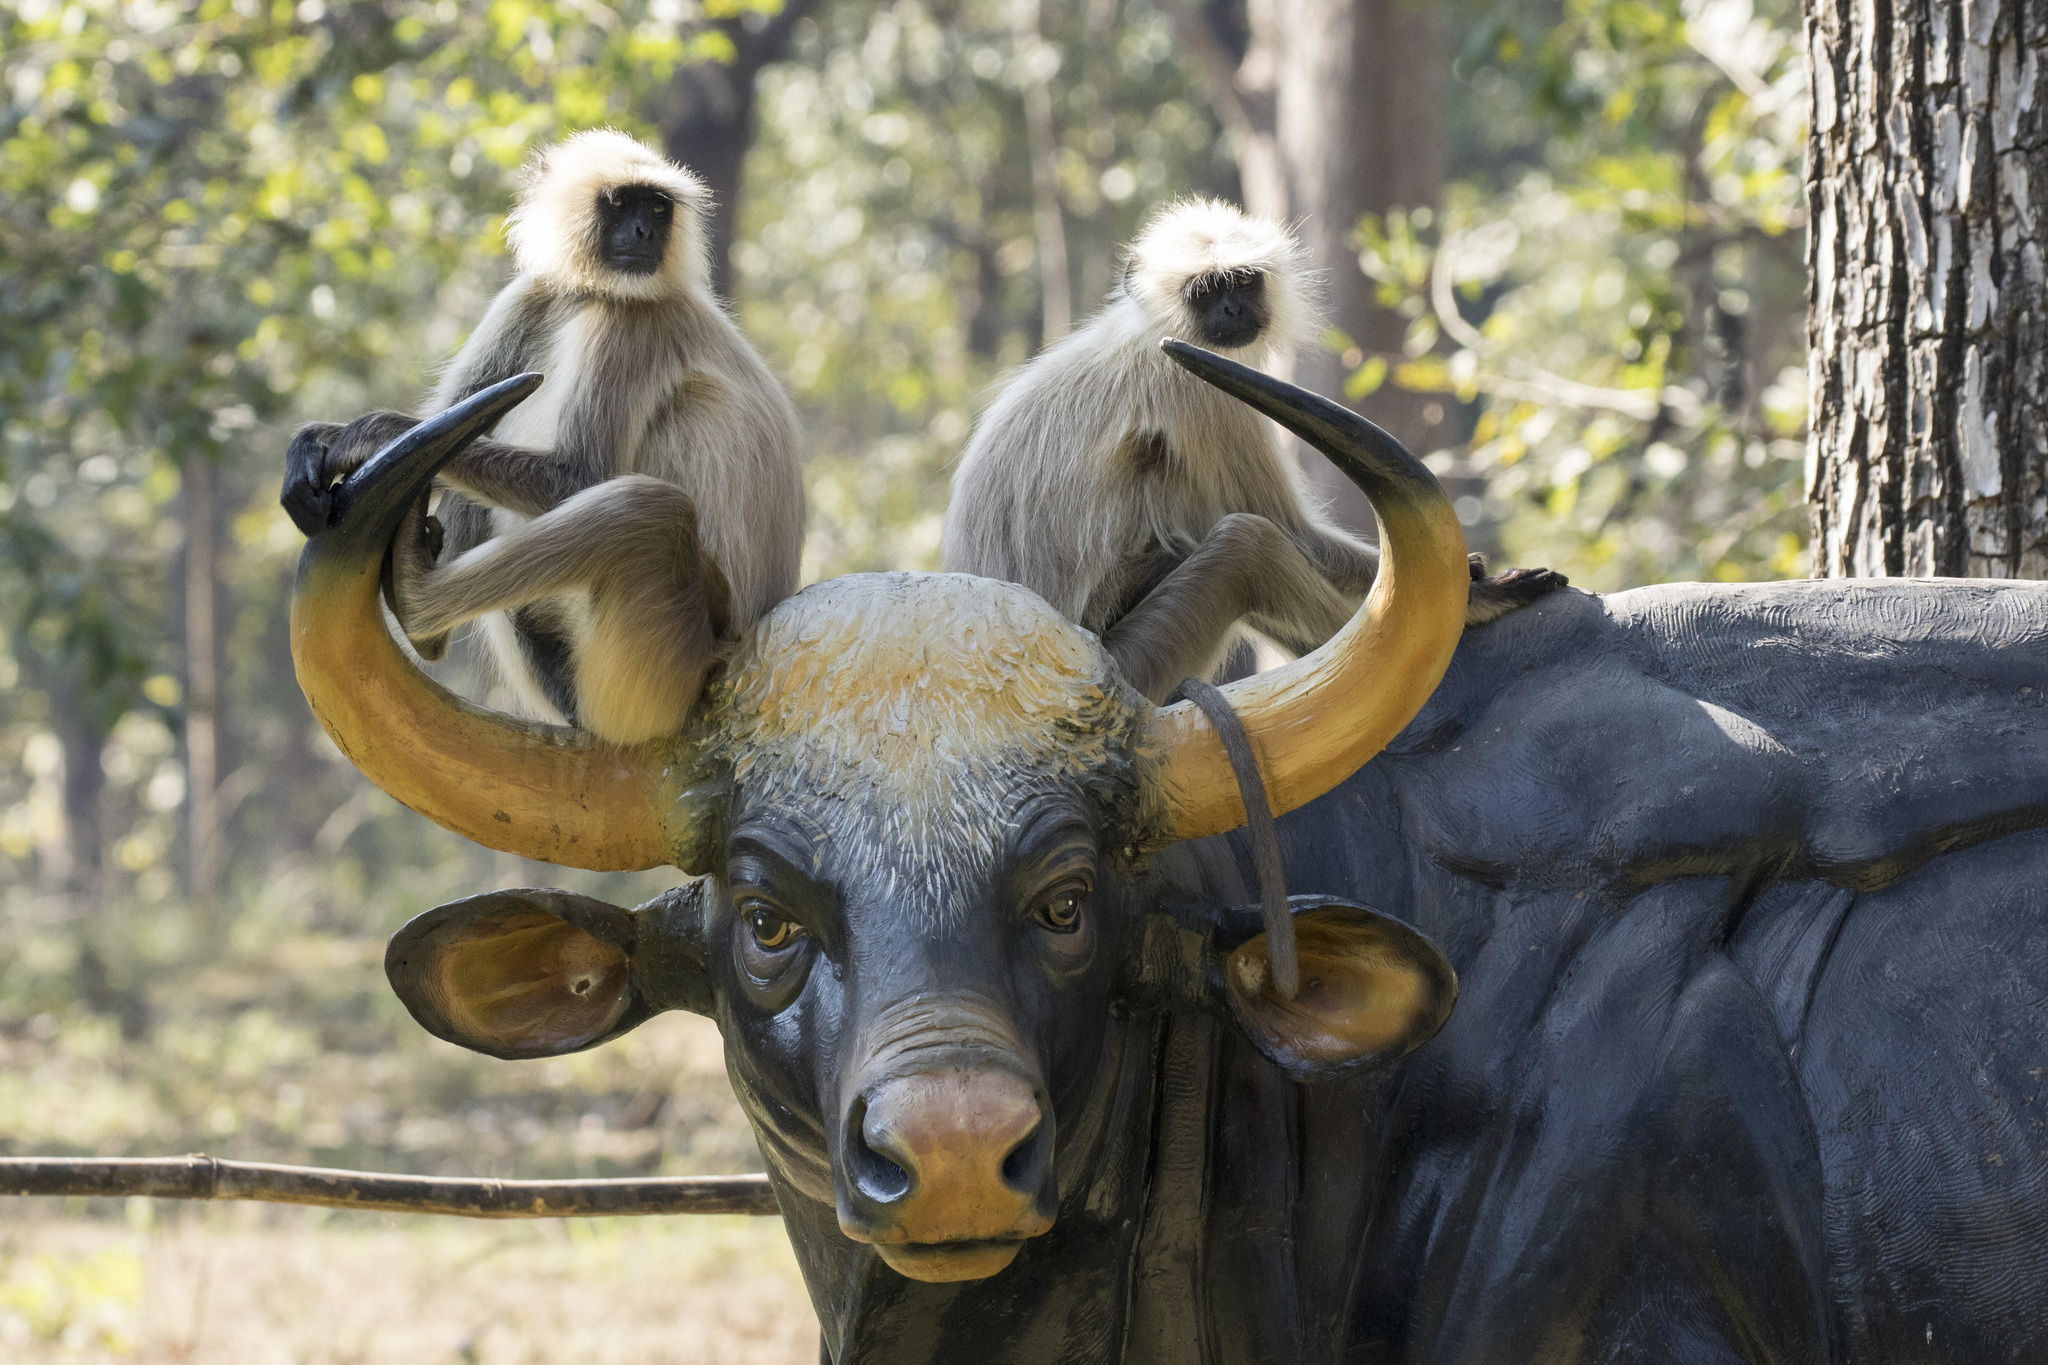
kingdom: Animalia
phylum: Chordata
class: Mammalia
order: Primates
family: Cercopithecidae
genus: Semnopithecus
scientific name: Semnopithecus entellus
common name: Northern plains gray langur
